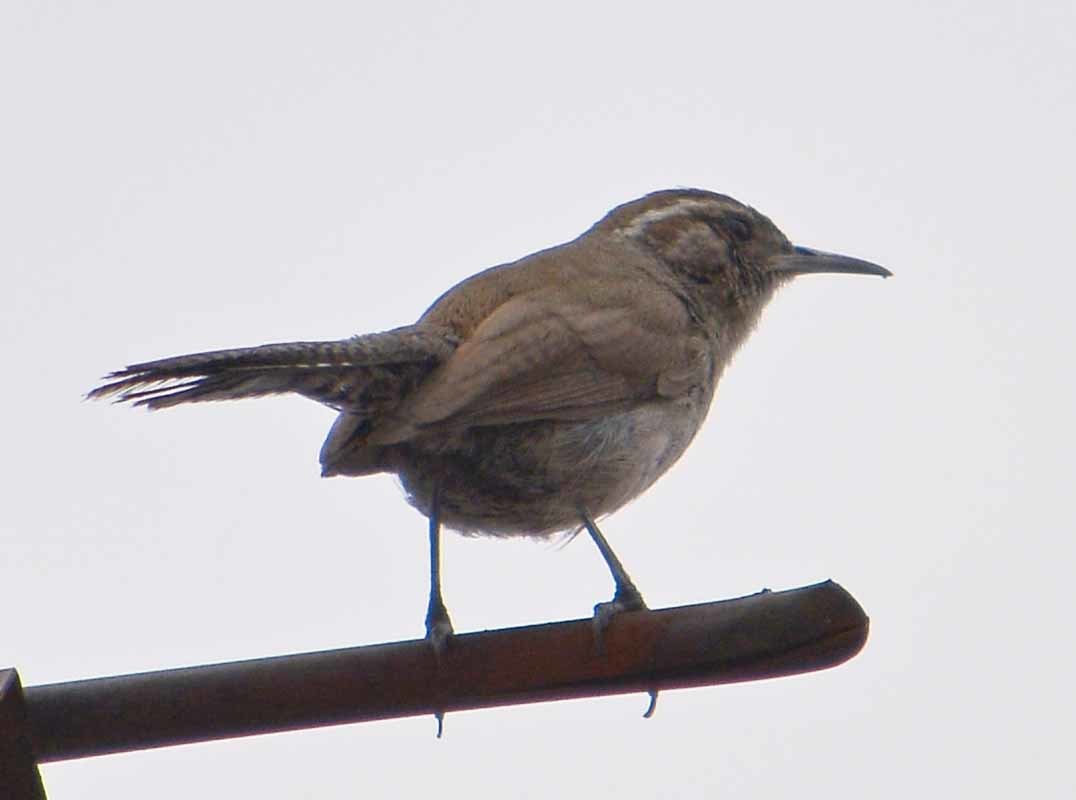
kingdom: Animalia
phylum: Chordata
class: Aves
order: Passeriformes
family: Troglodytidae
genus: Thryomanes
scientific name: Thryomanes bewickii
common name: Bewick's wren
